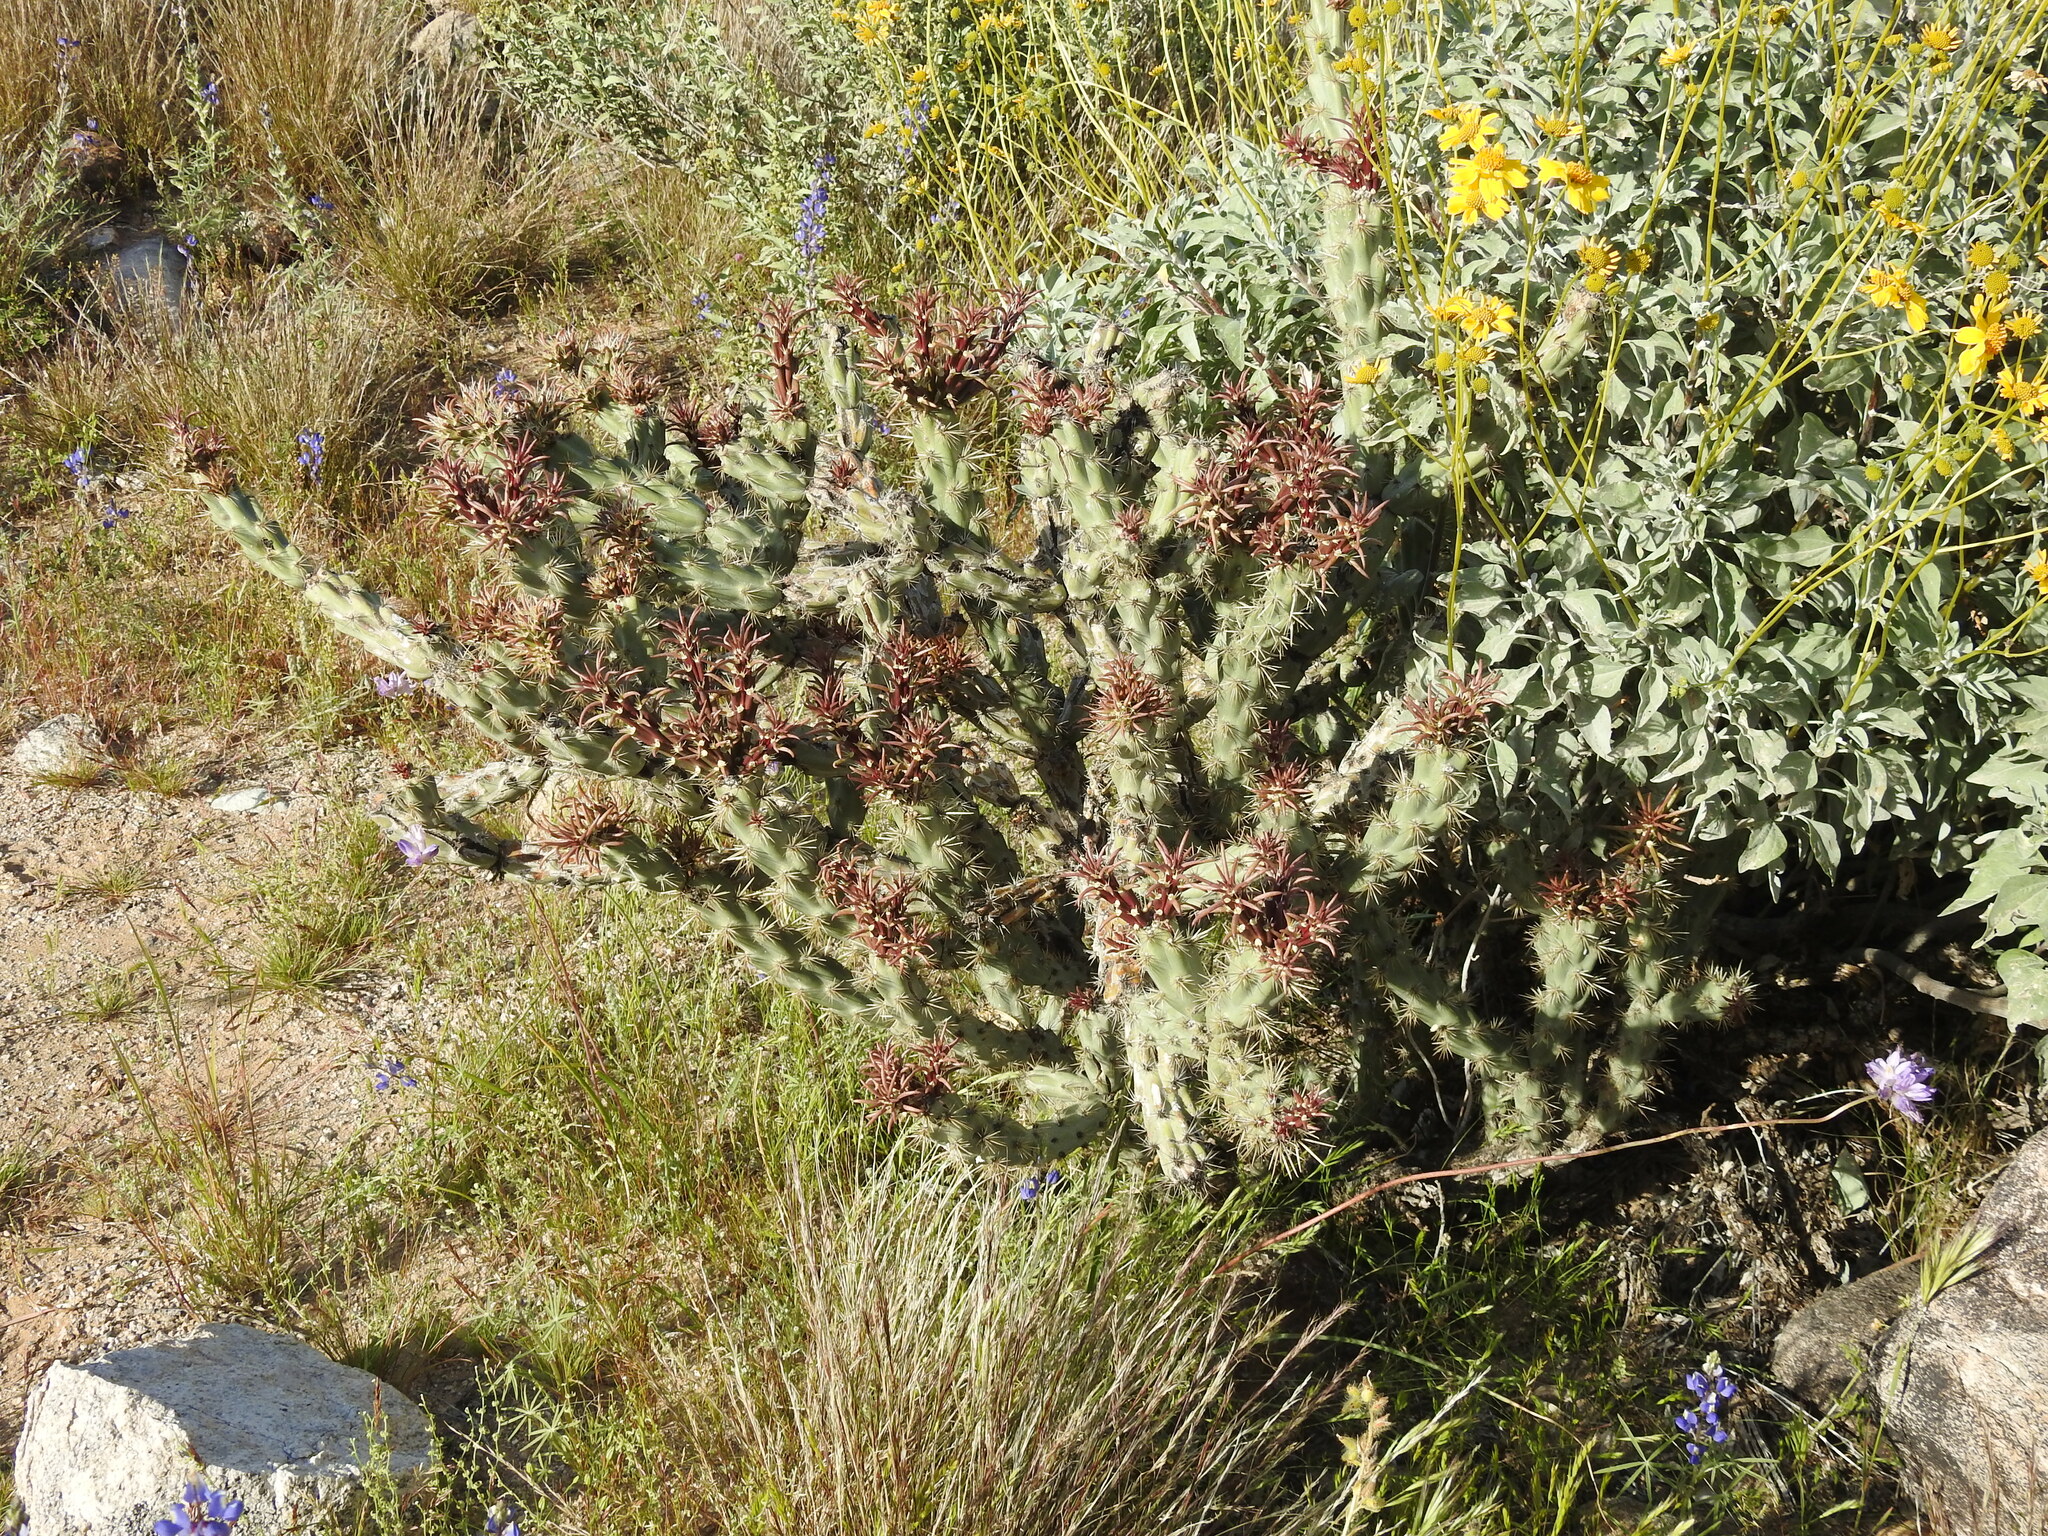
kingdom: Plantae
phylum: Tracheophyta
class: Magnoliopsida
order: Caryophyllales
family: Cactaceae
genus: Cylindropuntia
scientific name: Cylindropuntia acanthocarpa
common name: Buckhorn cholla
